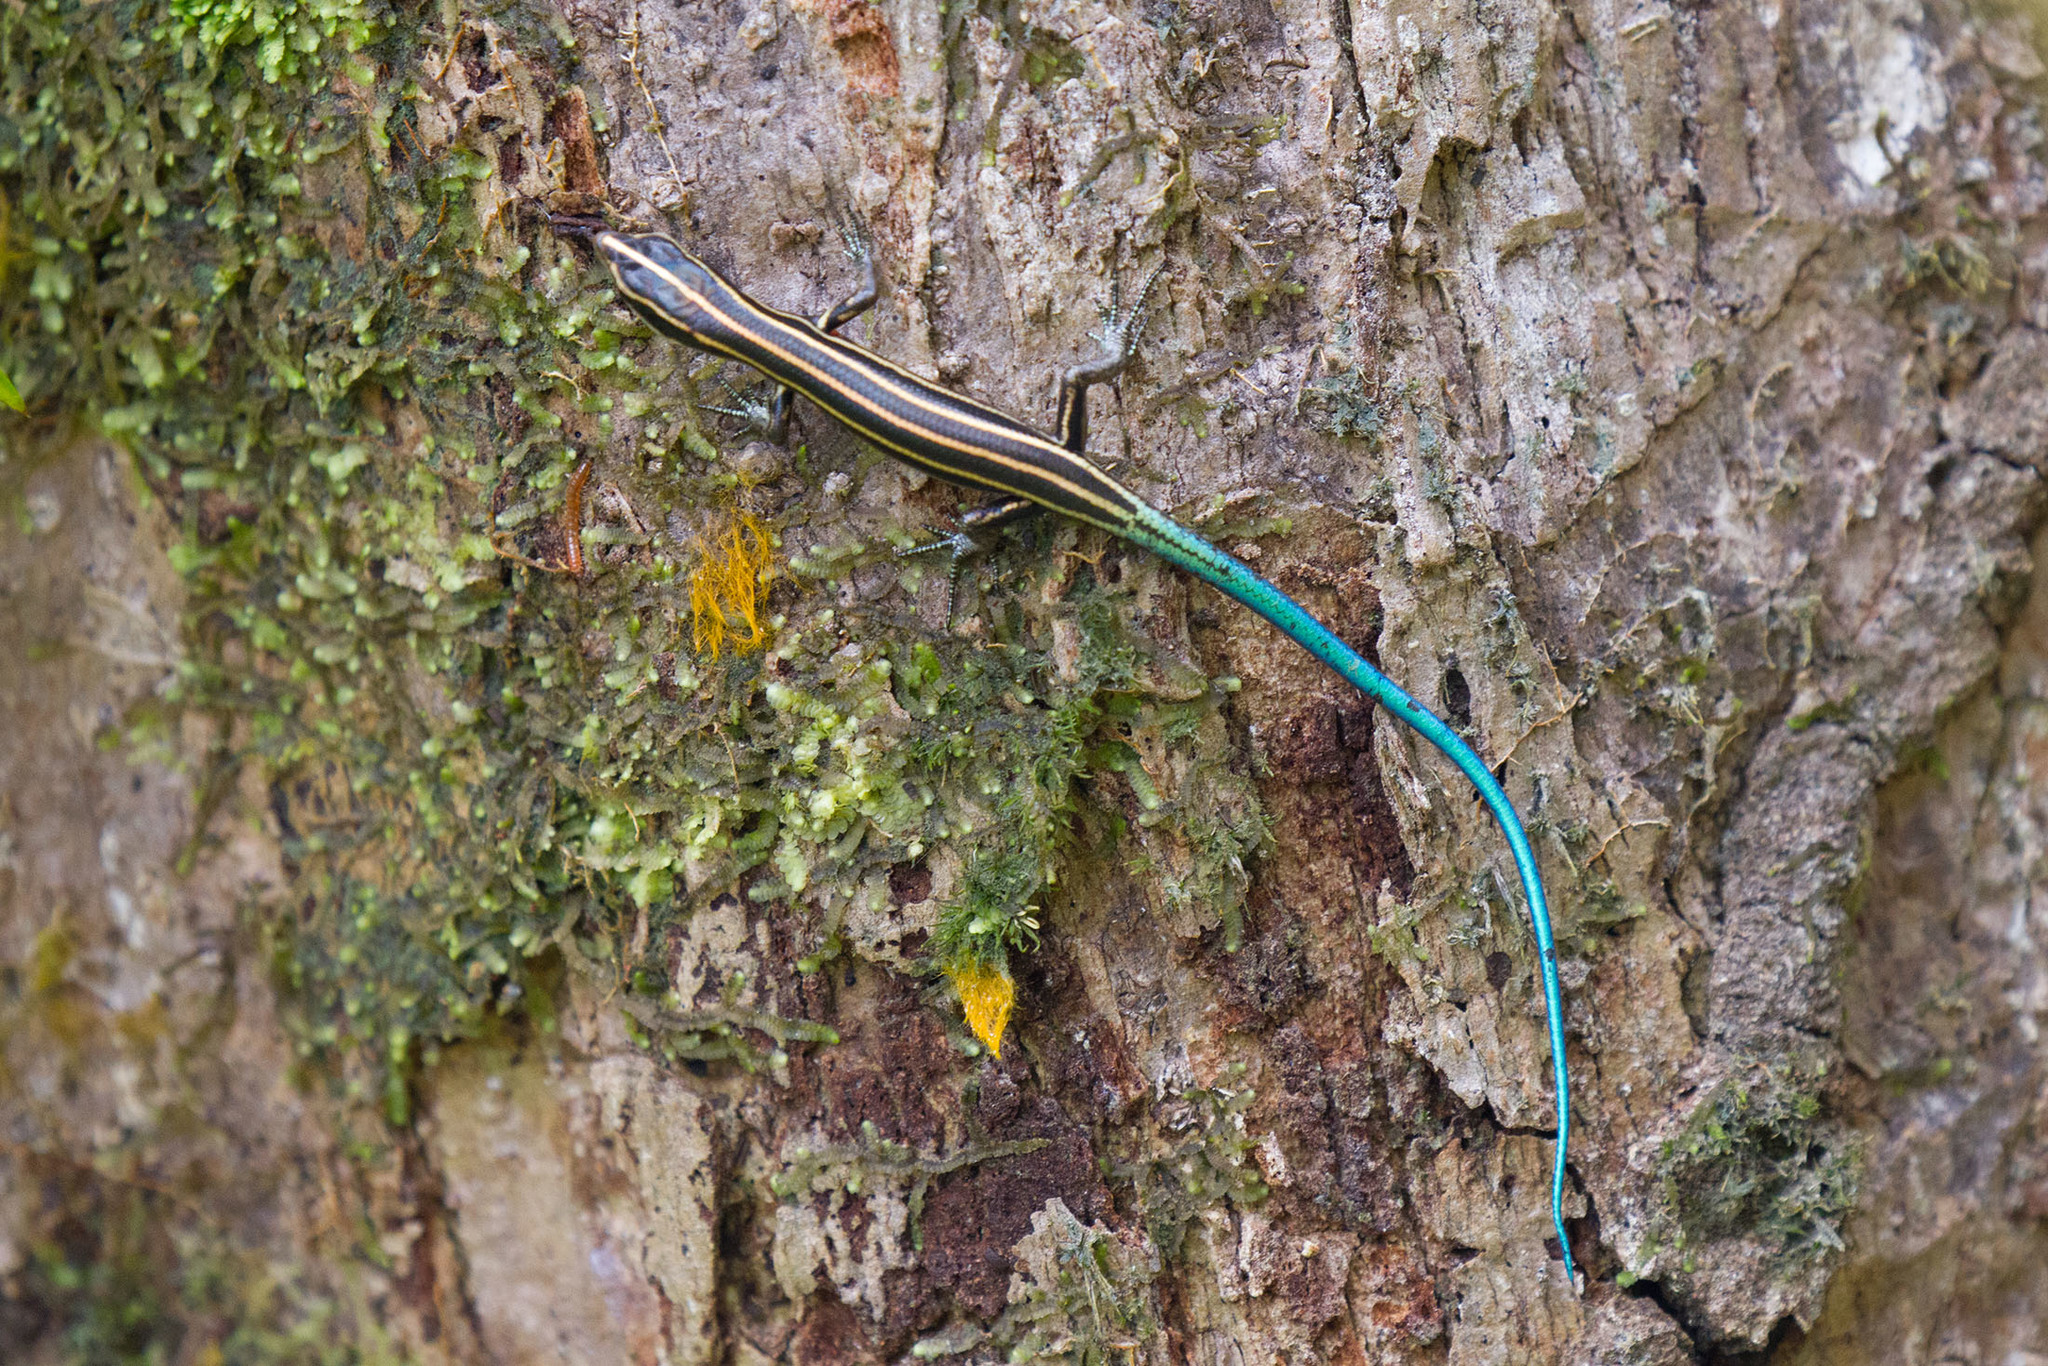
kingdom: Animalia
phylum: Chordata
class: Squamata
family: Scincidae
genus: Emoia
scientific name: Emoia caeruleocauda
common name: Pacific bluetail skink
